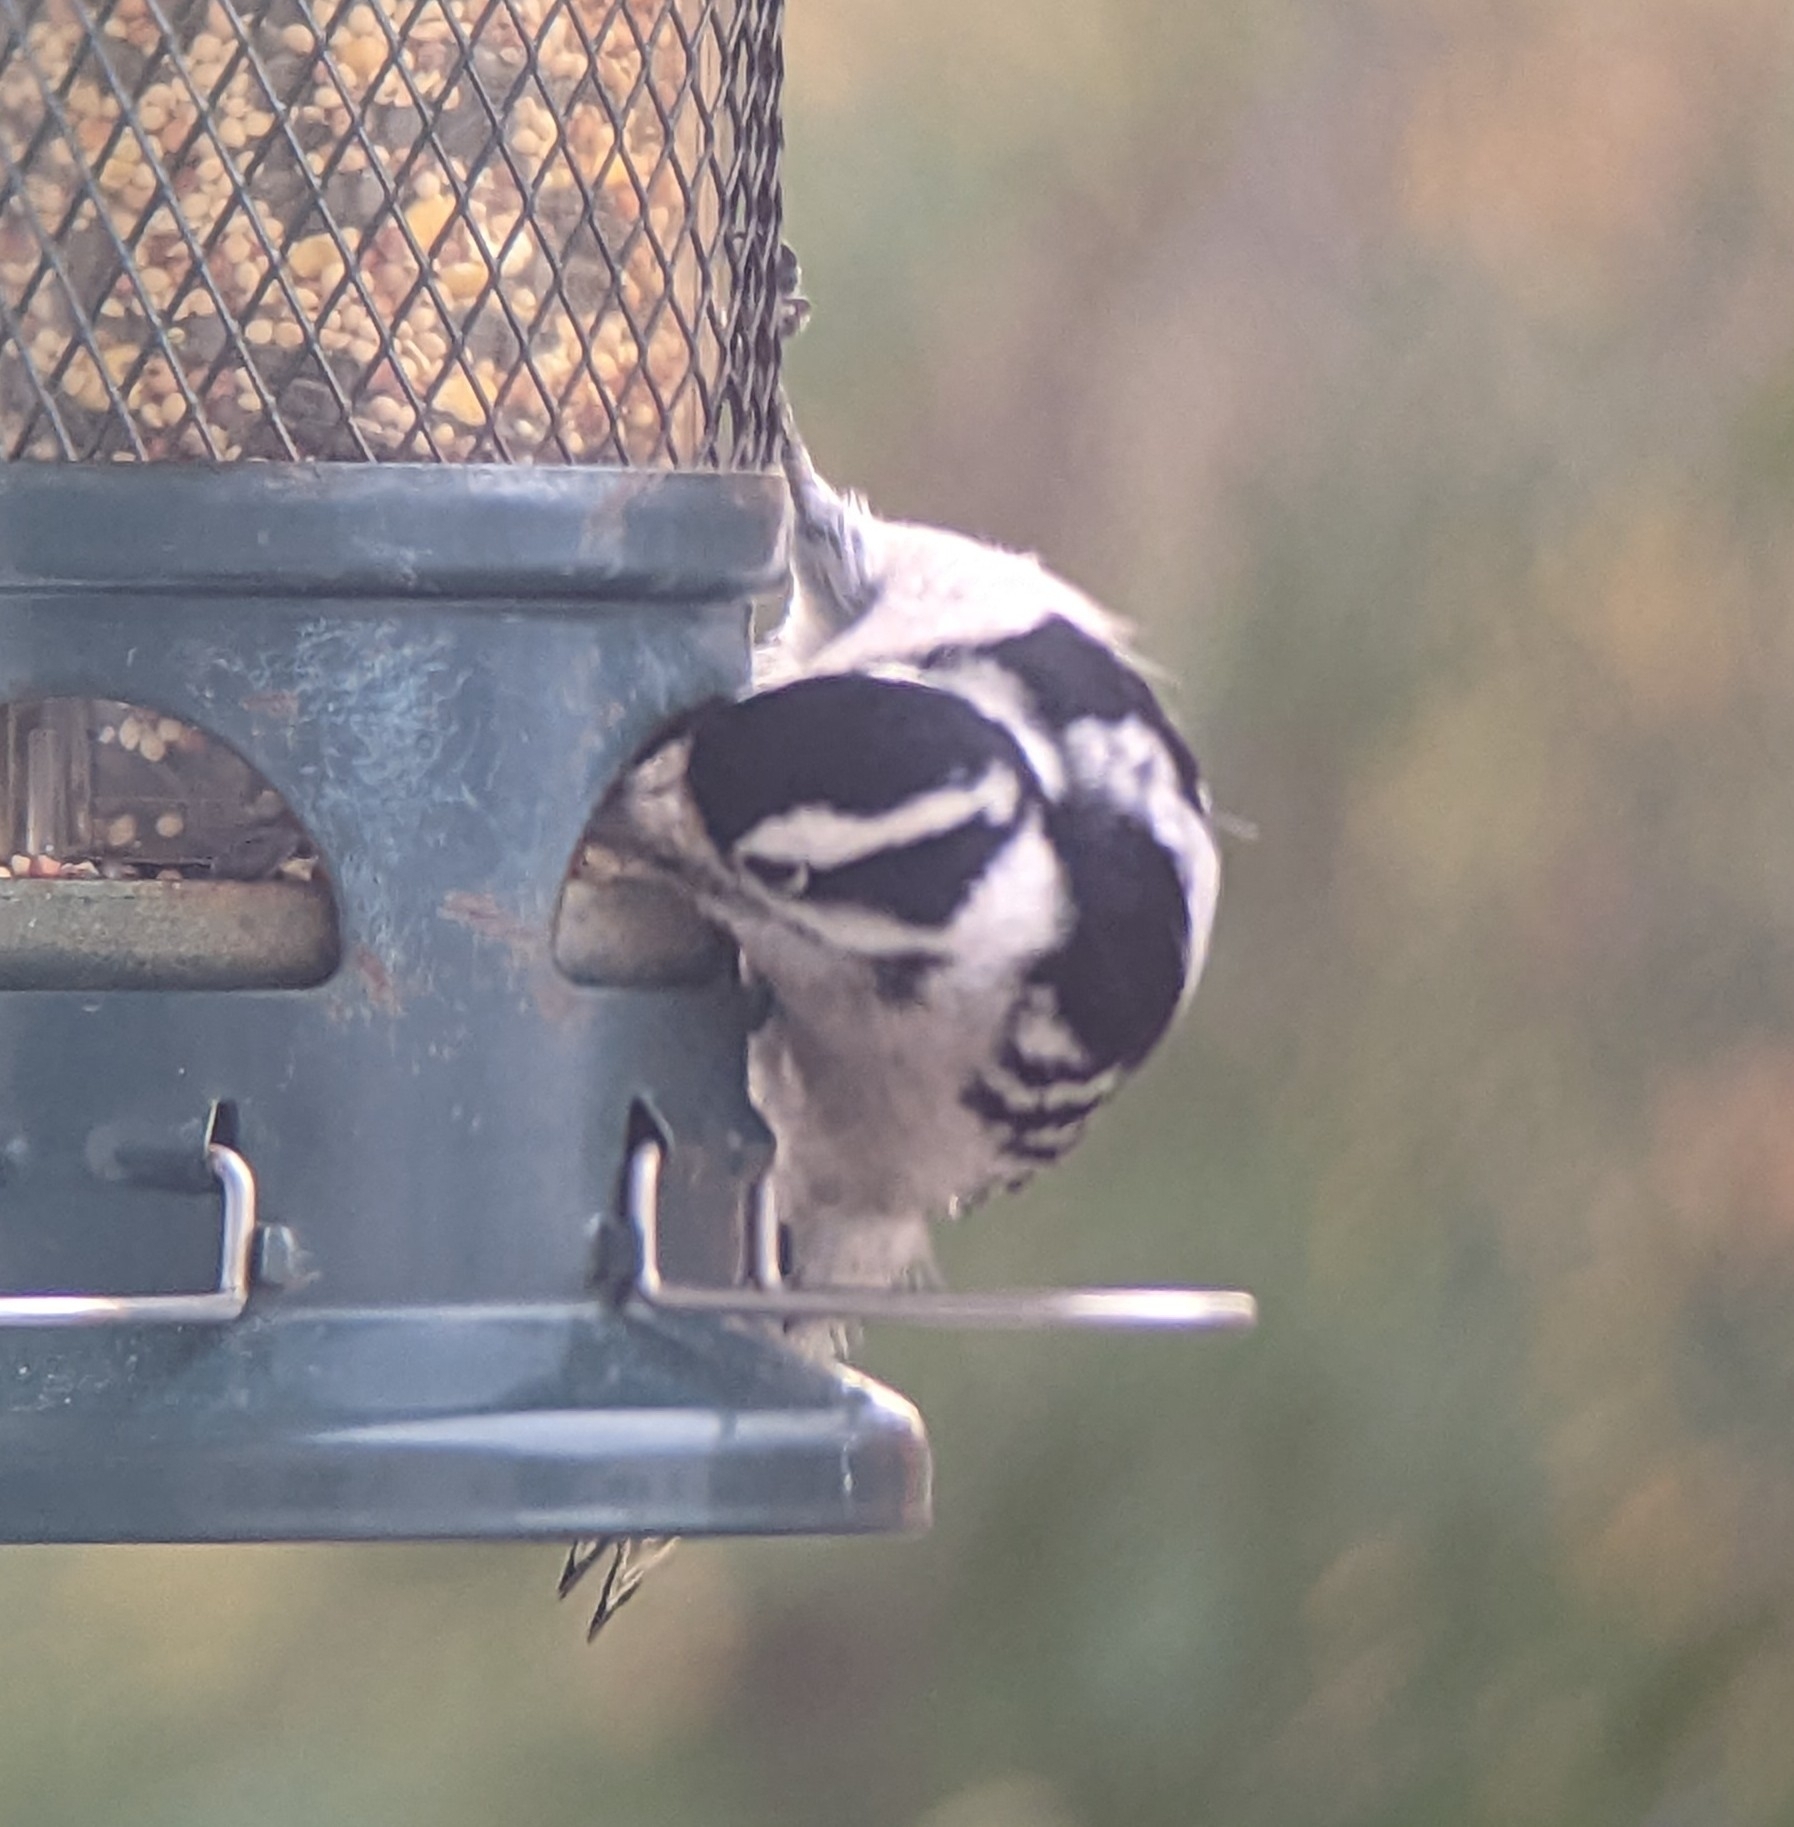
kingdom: Animalia
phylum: Chordata
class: Aves
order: Piciformes
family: Picidae
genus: Dryobates
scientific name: Dryobates pubescens
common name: Downy woodpecker
